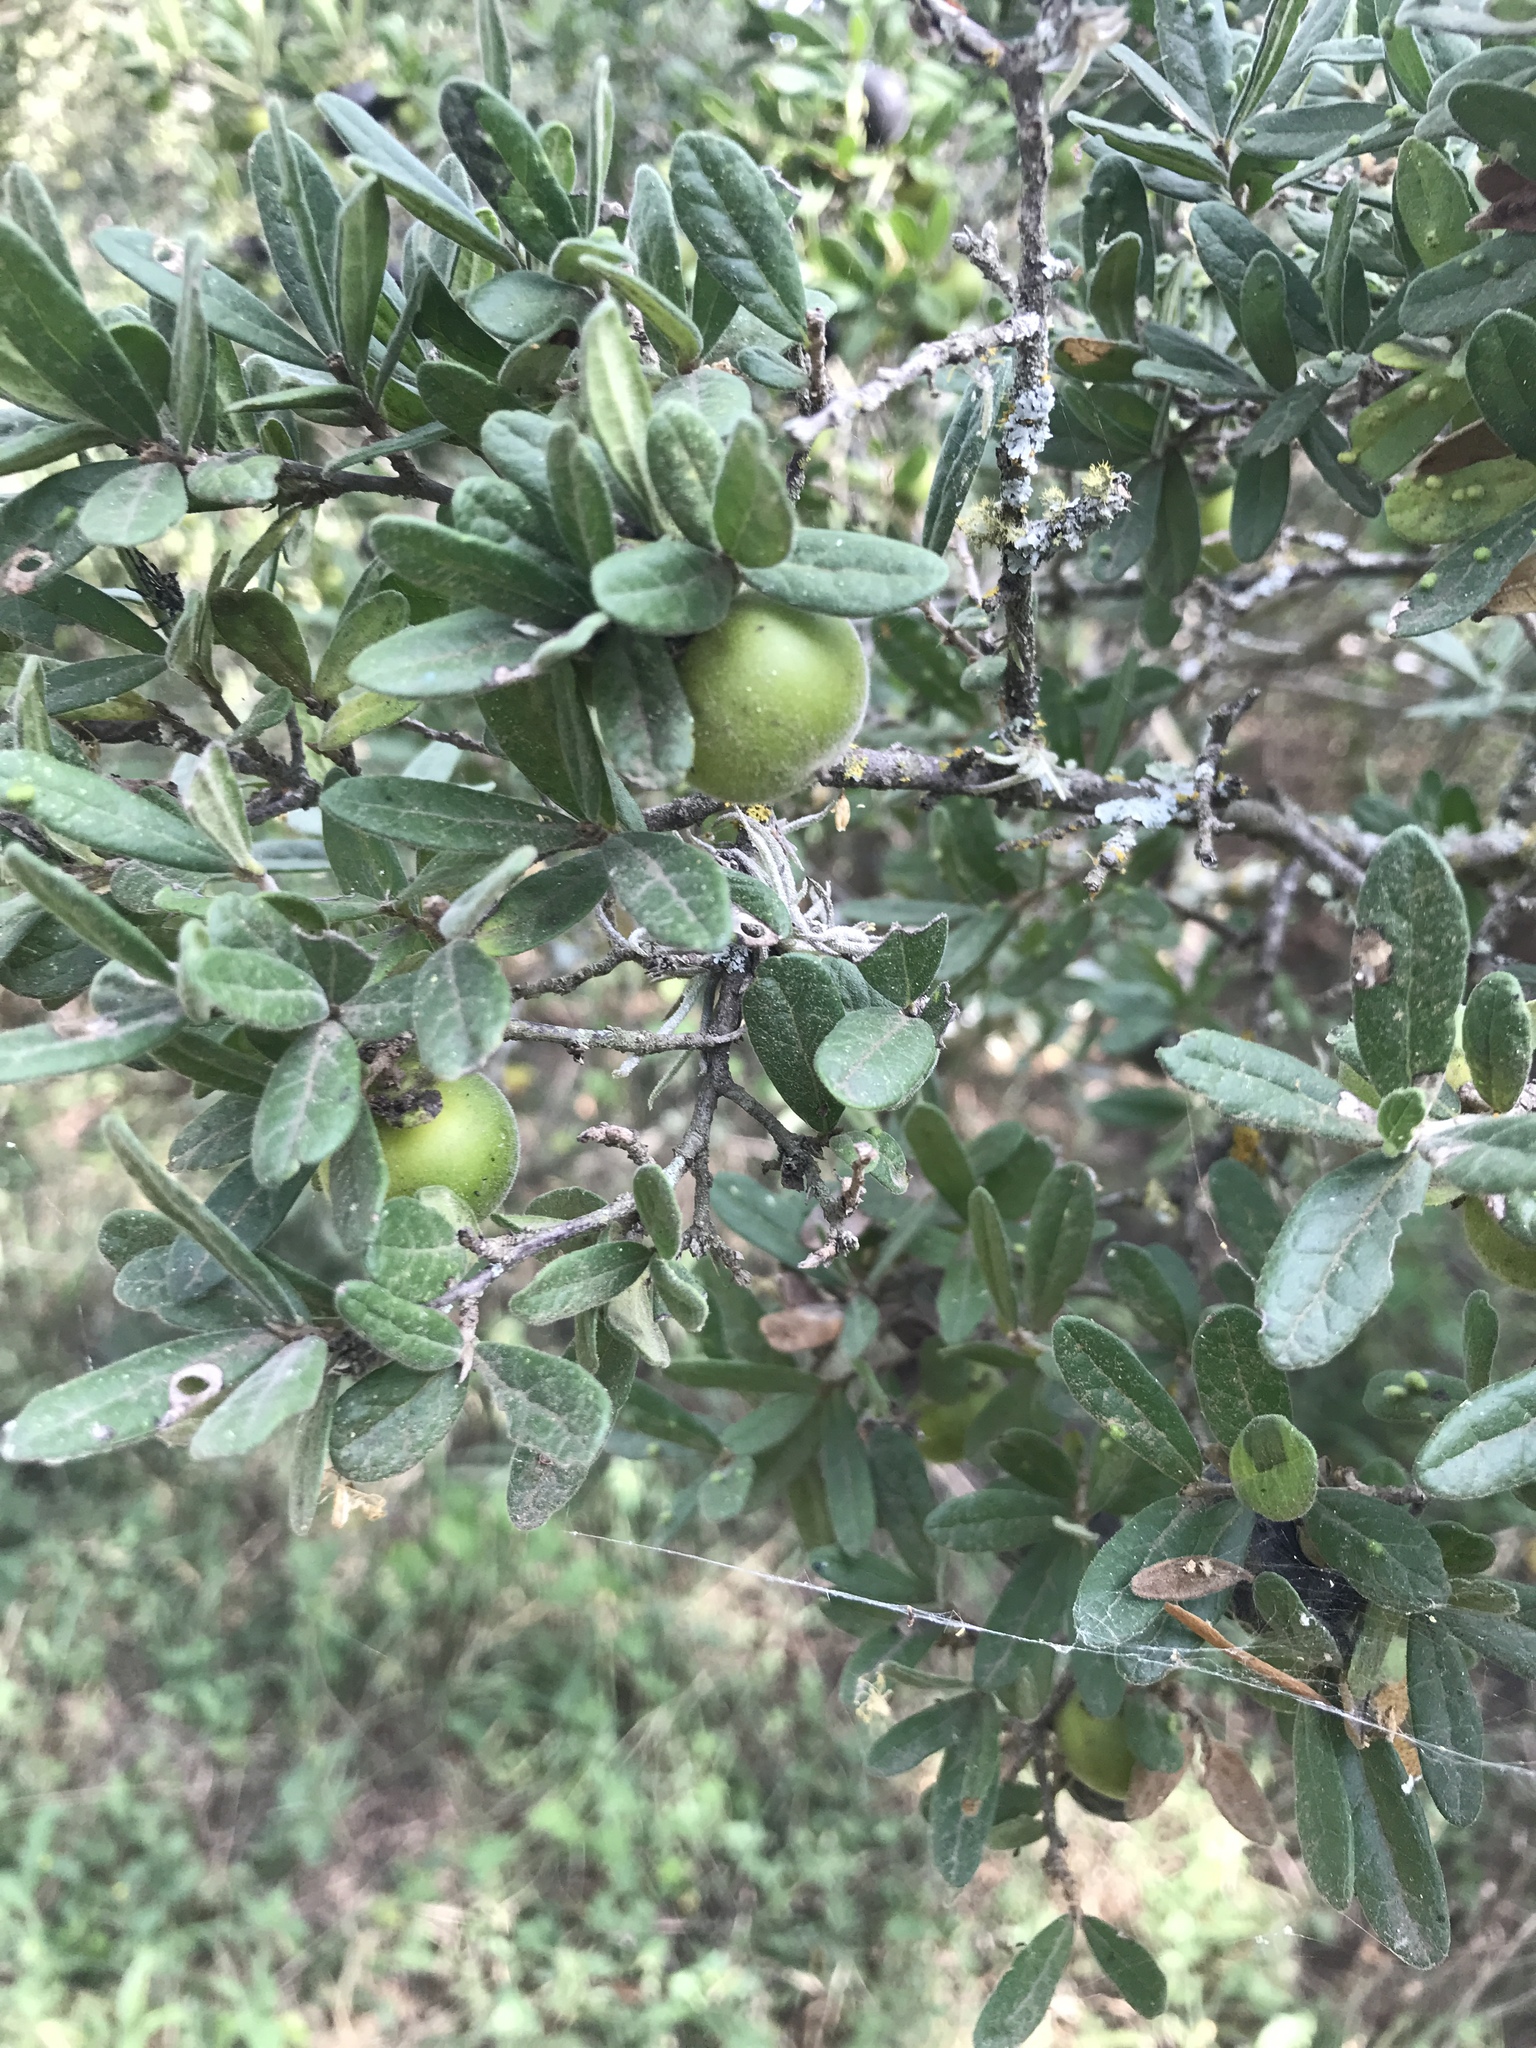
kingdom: Plantae
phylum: Tracheophyta
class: Magnoliopsida
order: Ericales
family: Ebenaceae
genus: Diospyros
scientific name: Diospyros texana
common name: Texas persimmon
